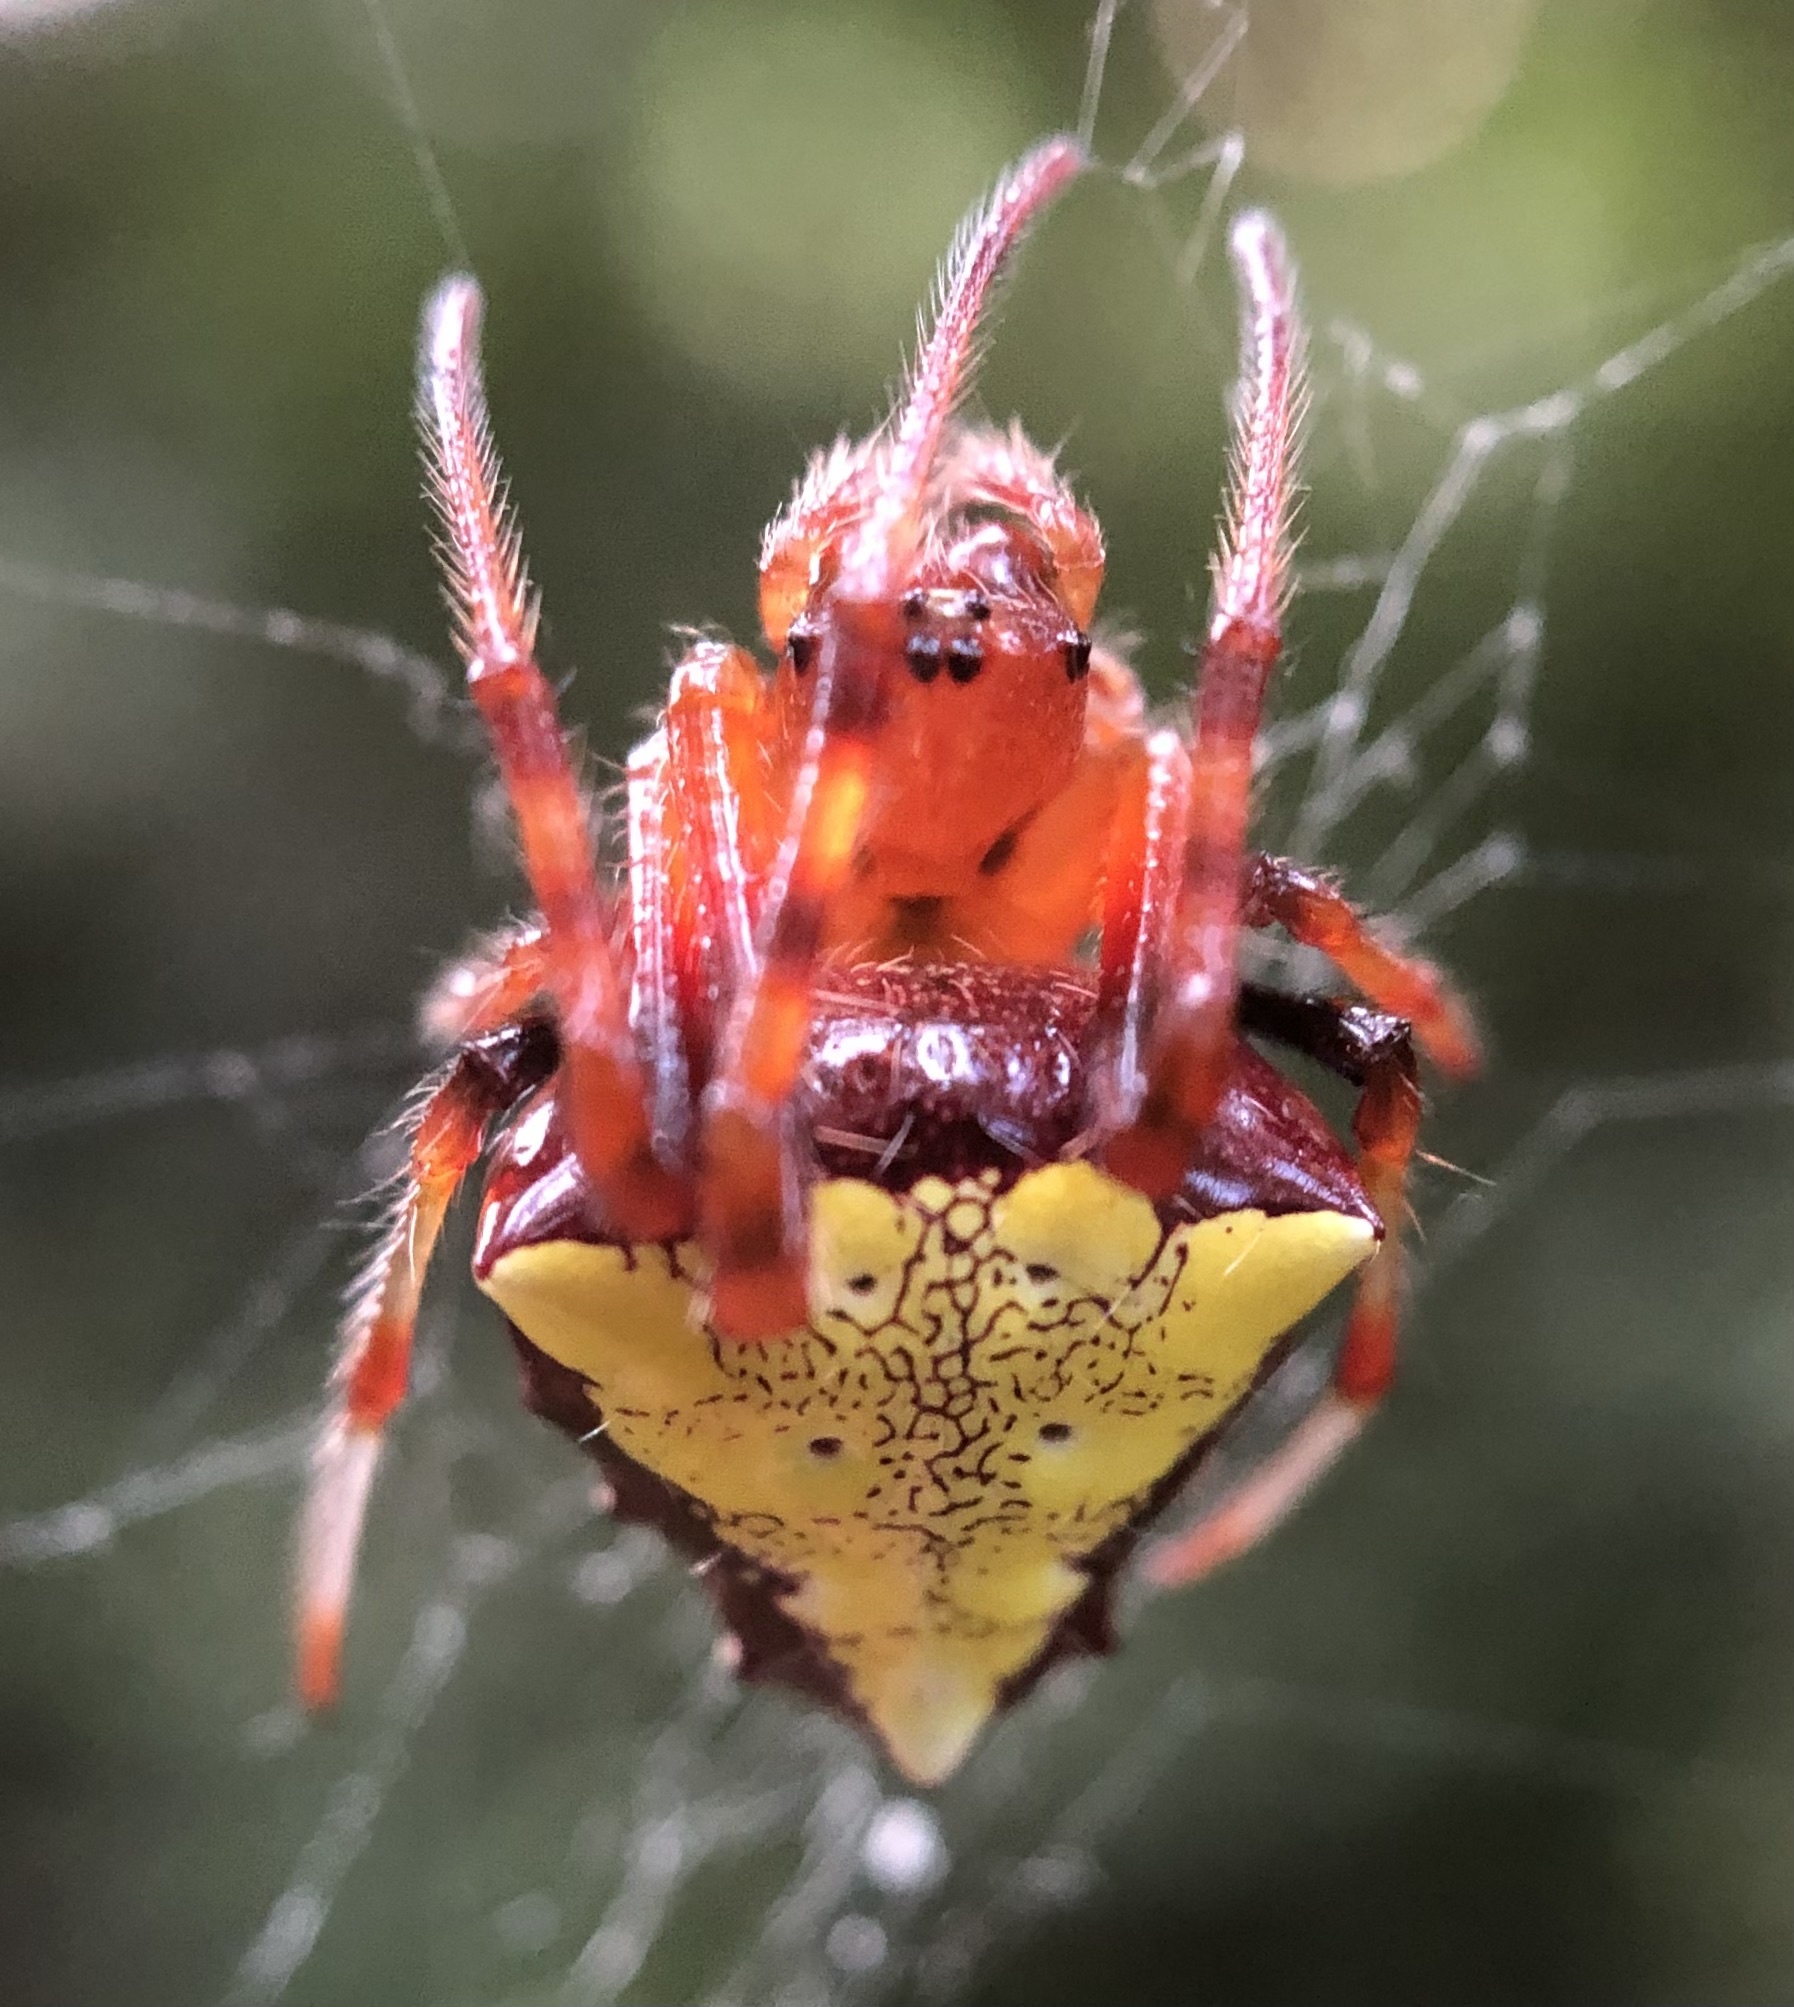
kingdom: Animalia
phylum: Arthropoda
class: Arachnida
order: Araneae
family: Araneidae
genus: Verrucosa
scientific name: Verrucosa arenata
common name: Orb weavers
